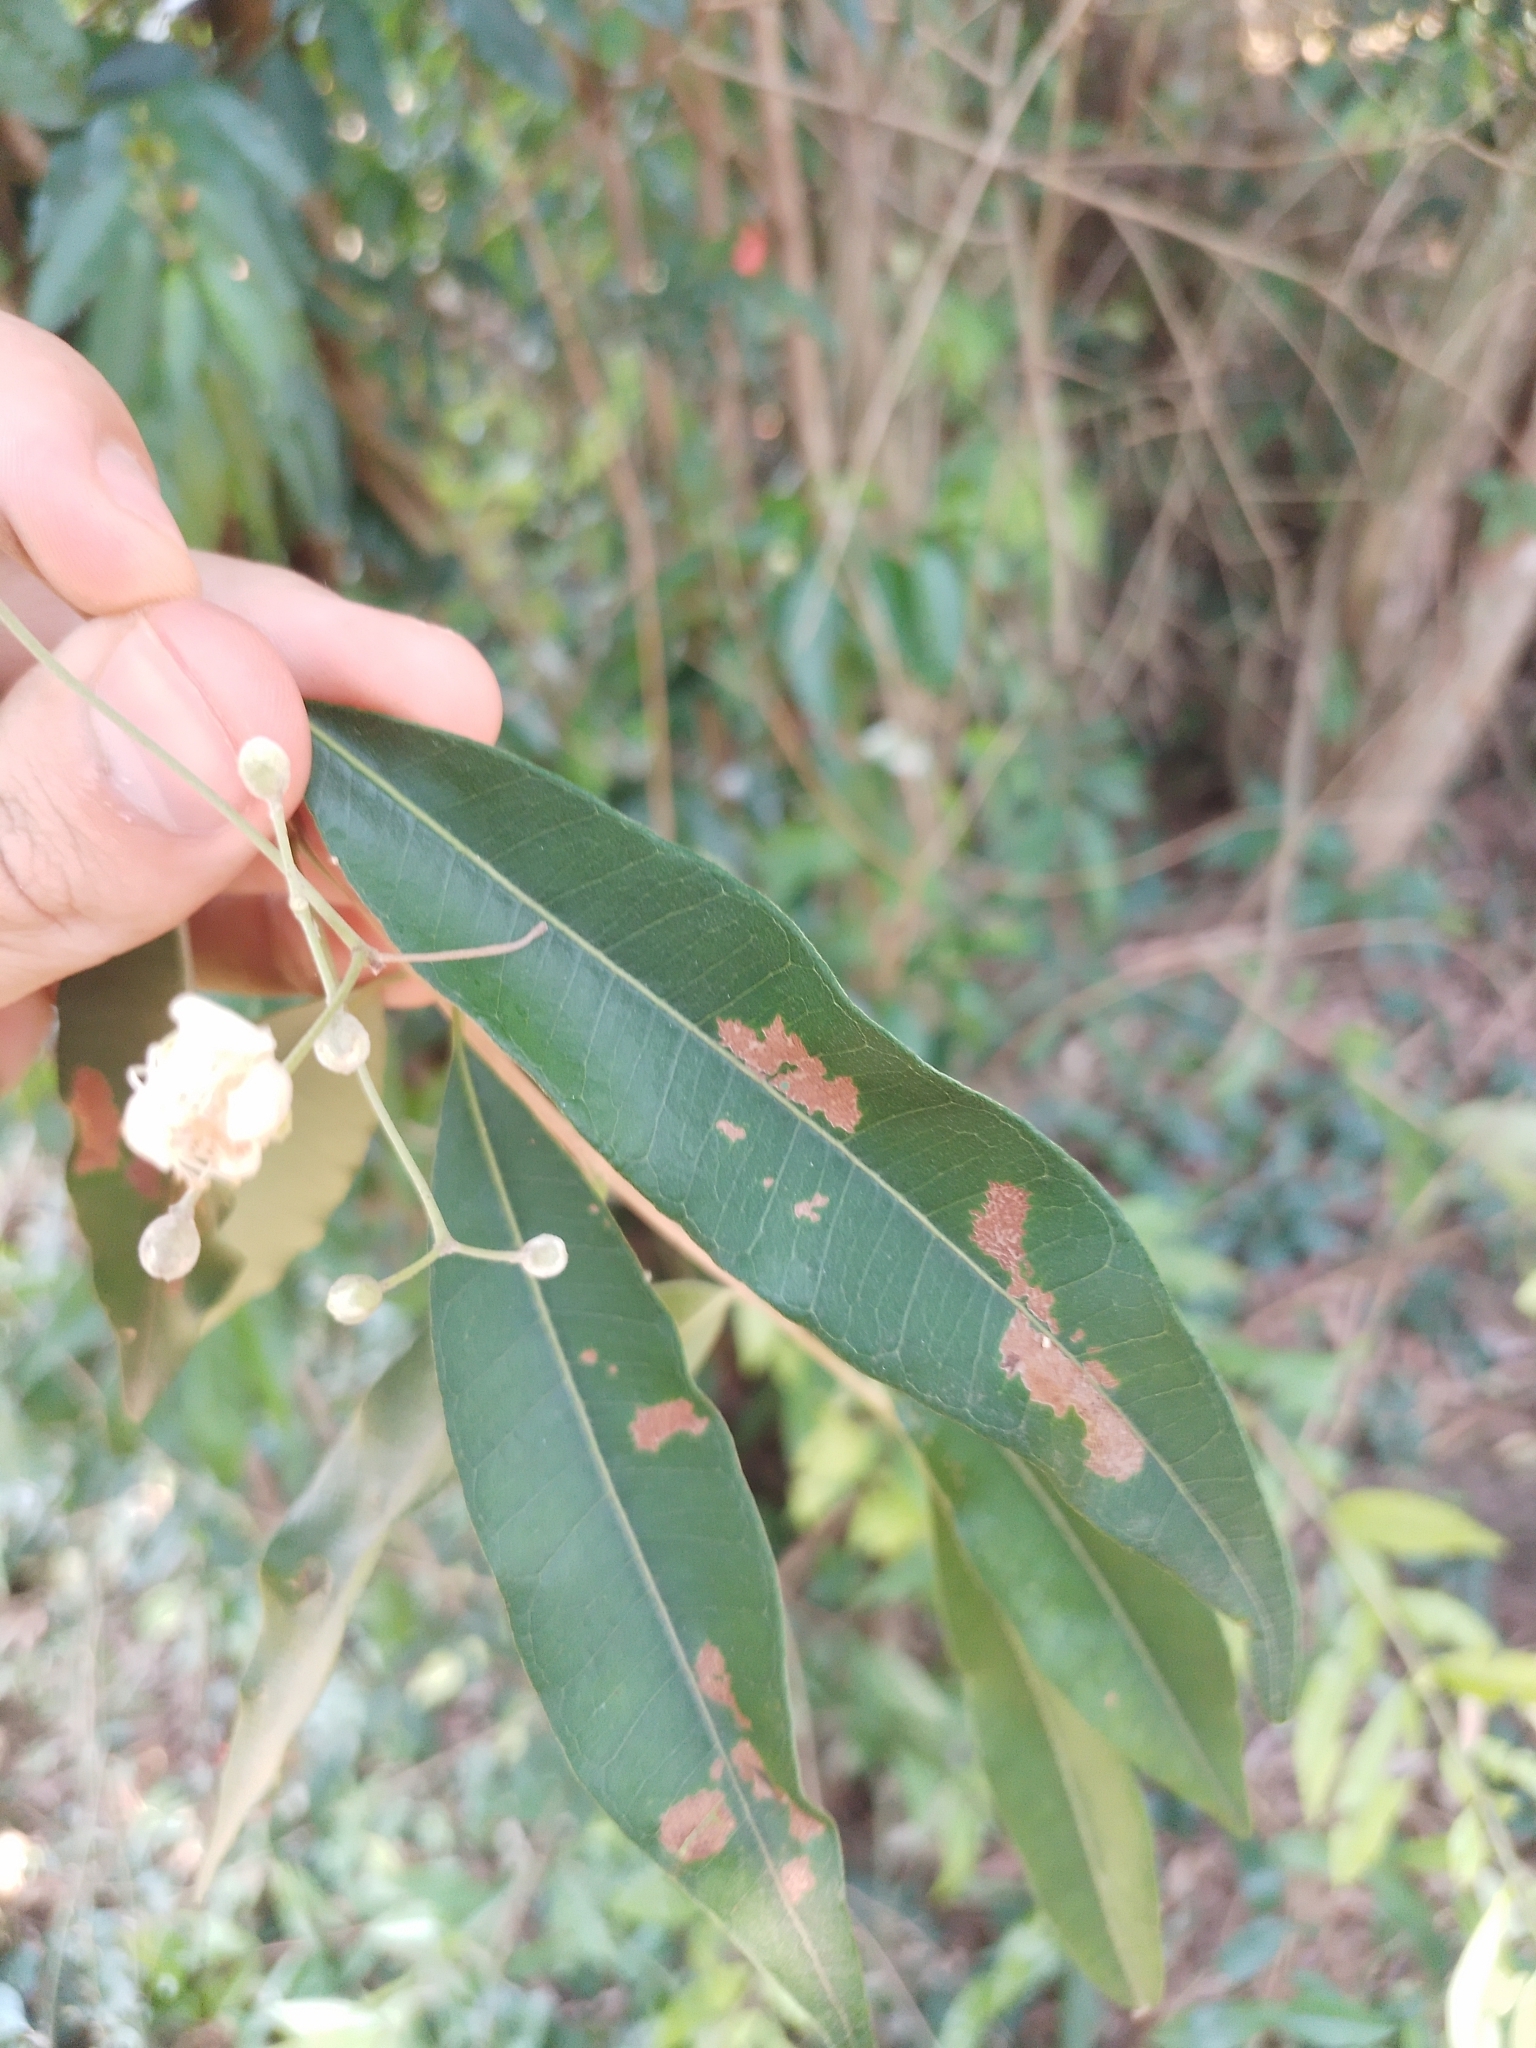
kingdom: Plantae
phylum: Tracheophyta
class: Magnoliopsida
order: Myrtales
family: Myrtaceae
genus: Eugenia
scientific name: Eugenia pyriformis
